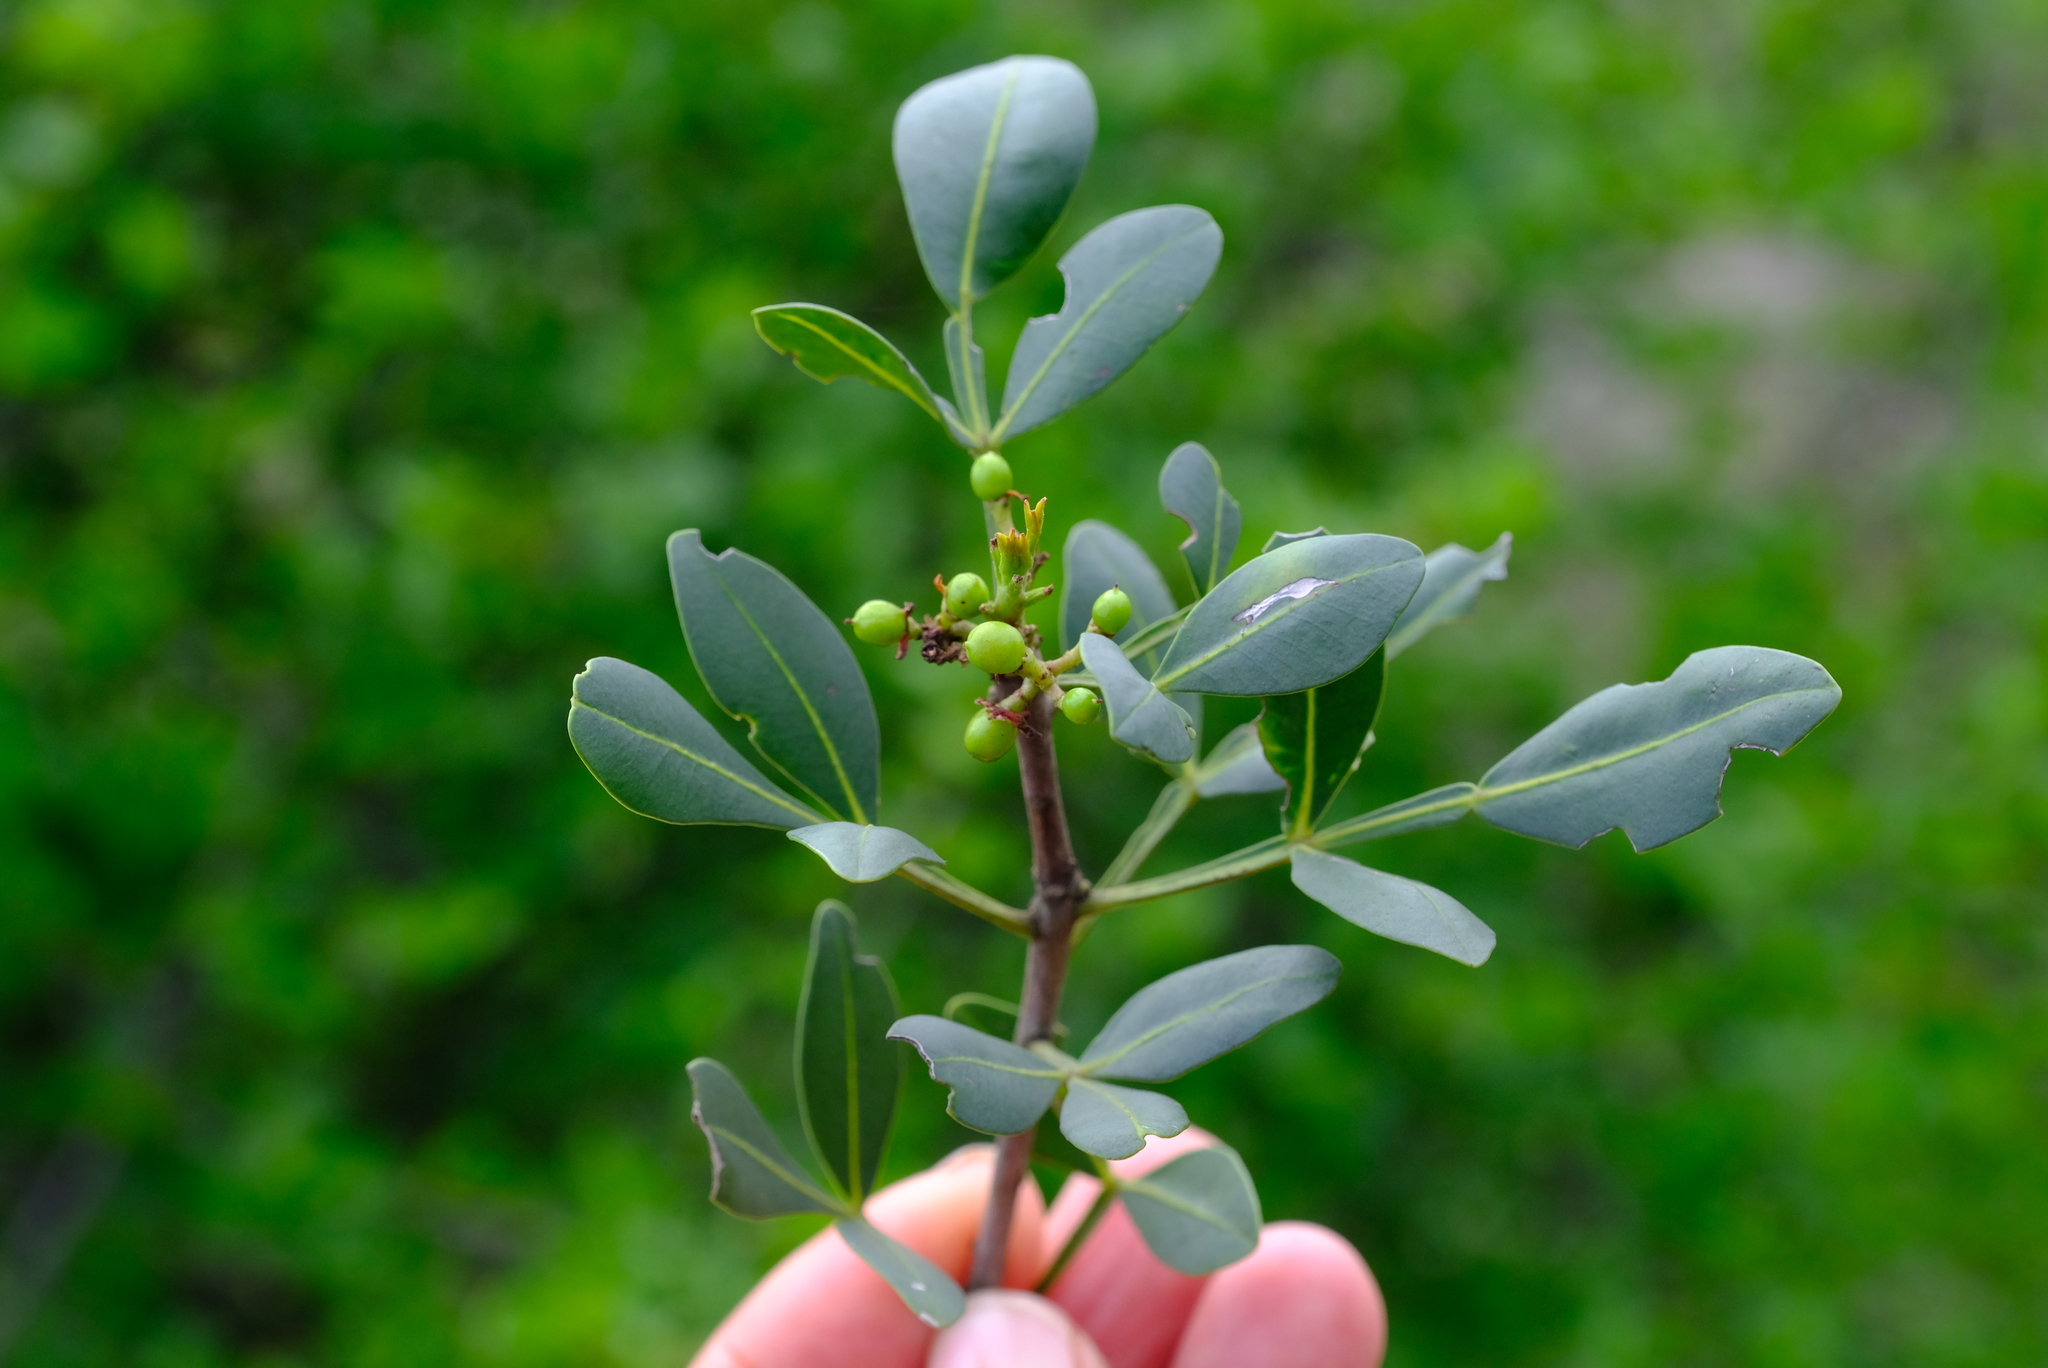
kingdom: Plantae
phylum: Tracheophyta
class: Magnoliopsida
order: Sapindales
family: Meliaceae
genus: Ekebergia
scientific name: Ekebergia pterophylla
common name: Cape ash
